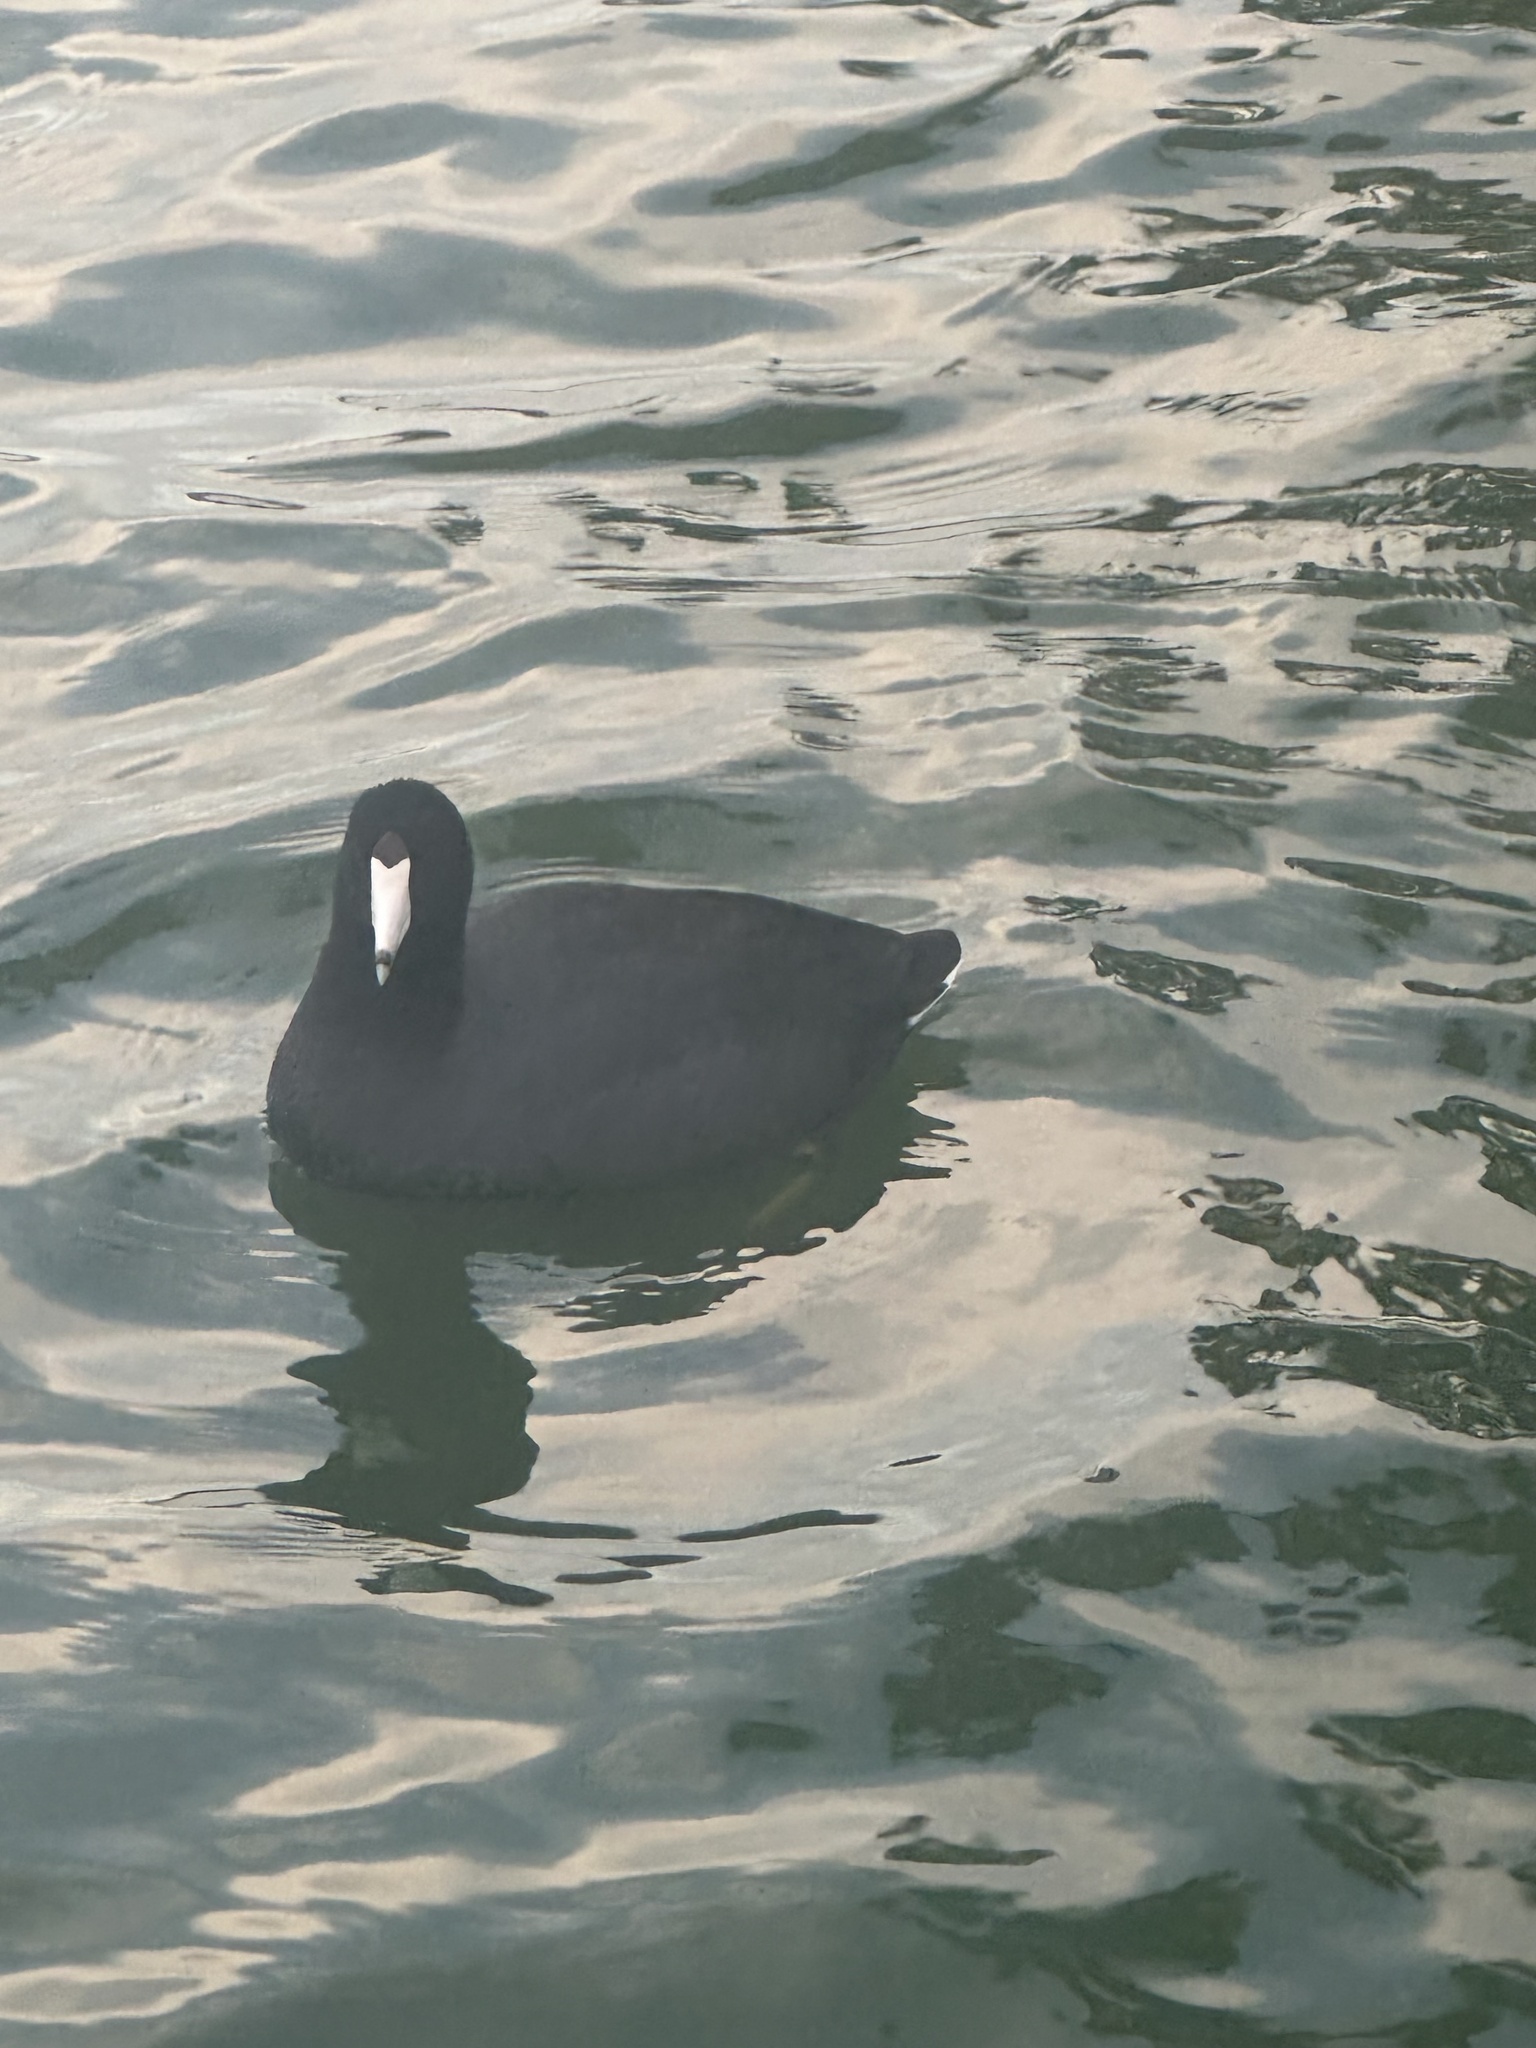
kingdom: Animalia
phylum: Chordata
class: Aves
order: Gruiformes
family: Rallidae
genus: Fulica
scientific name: Fulica americana
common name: American coot
